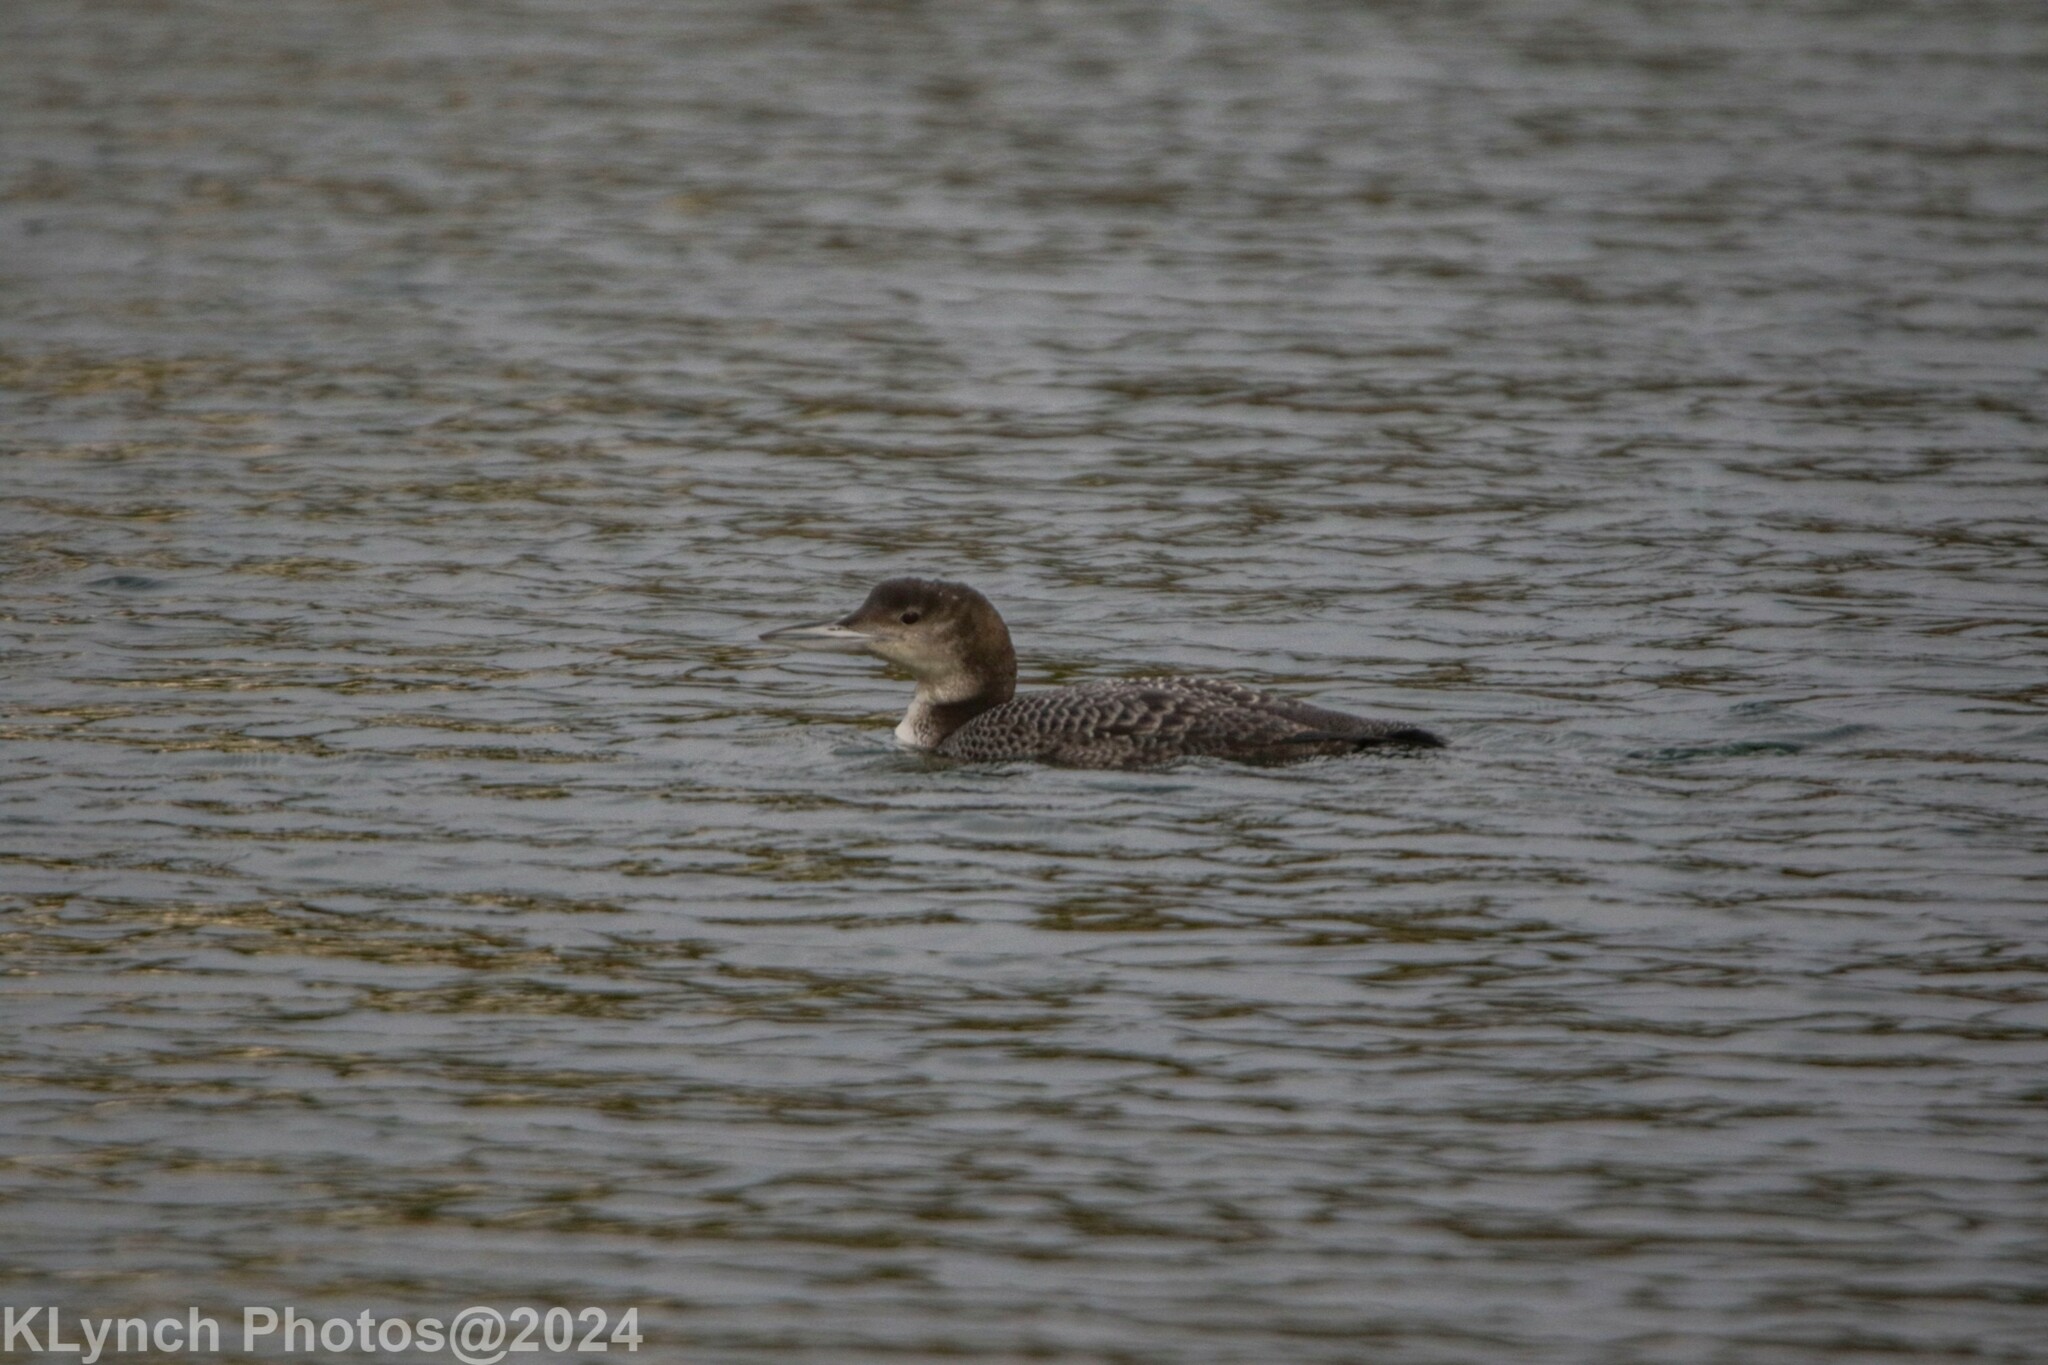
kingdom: Animalia
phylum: Chordata
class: Aves
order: Gaviiformes
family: Gaviidae
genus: Gavia
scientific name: Gavia immer
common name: Common loon
